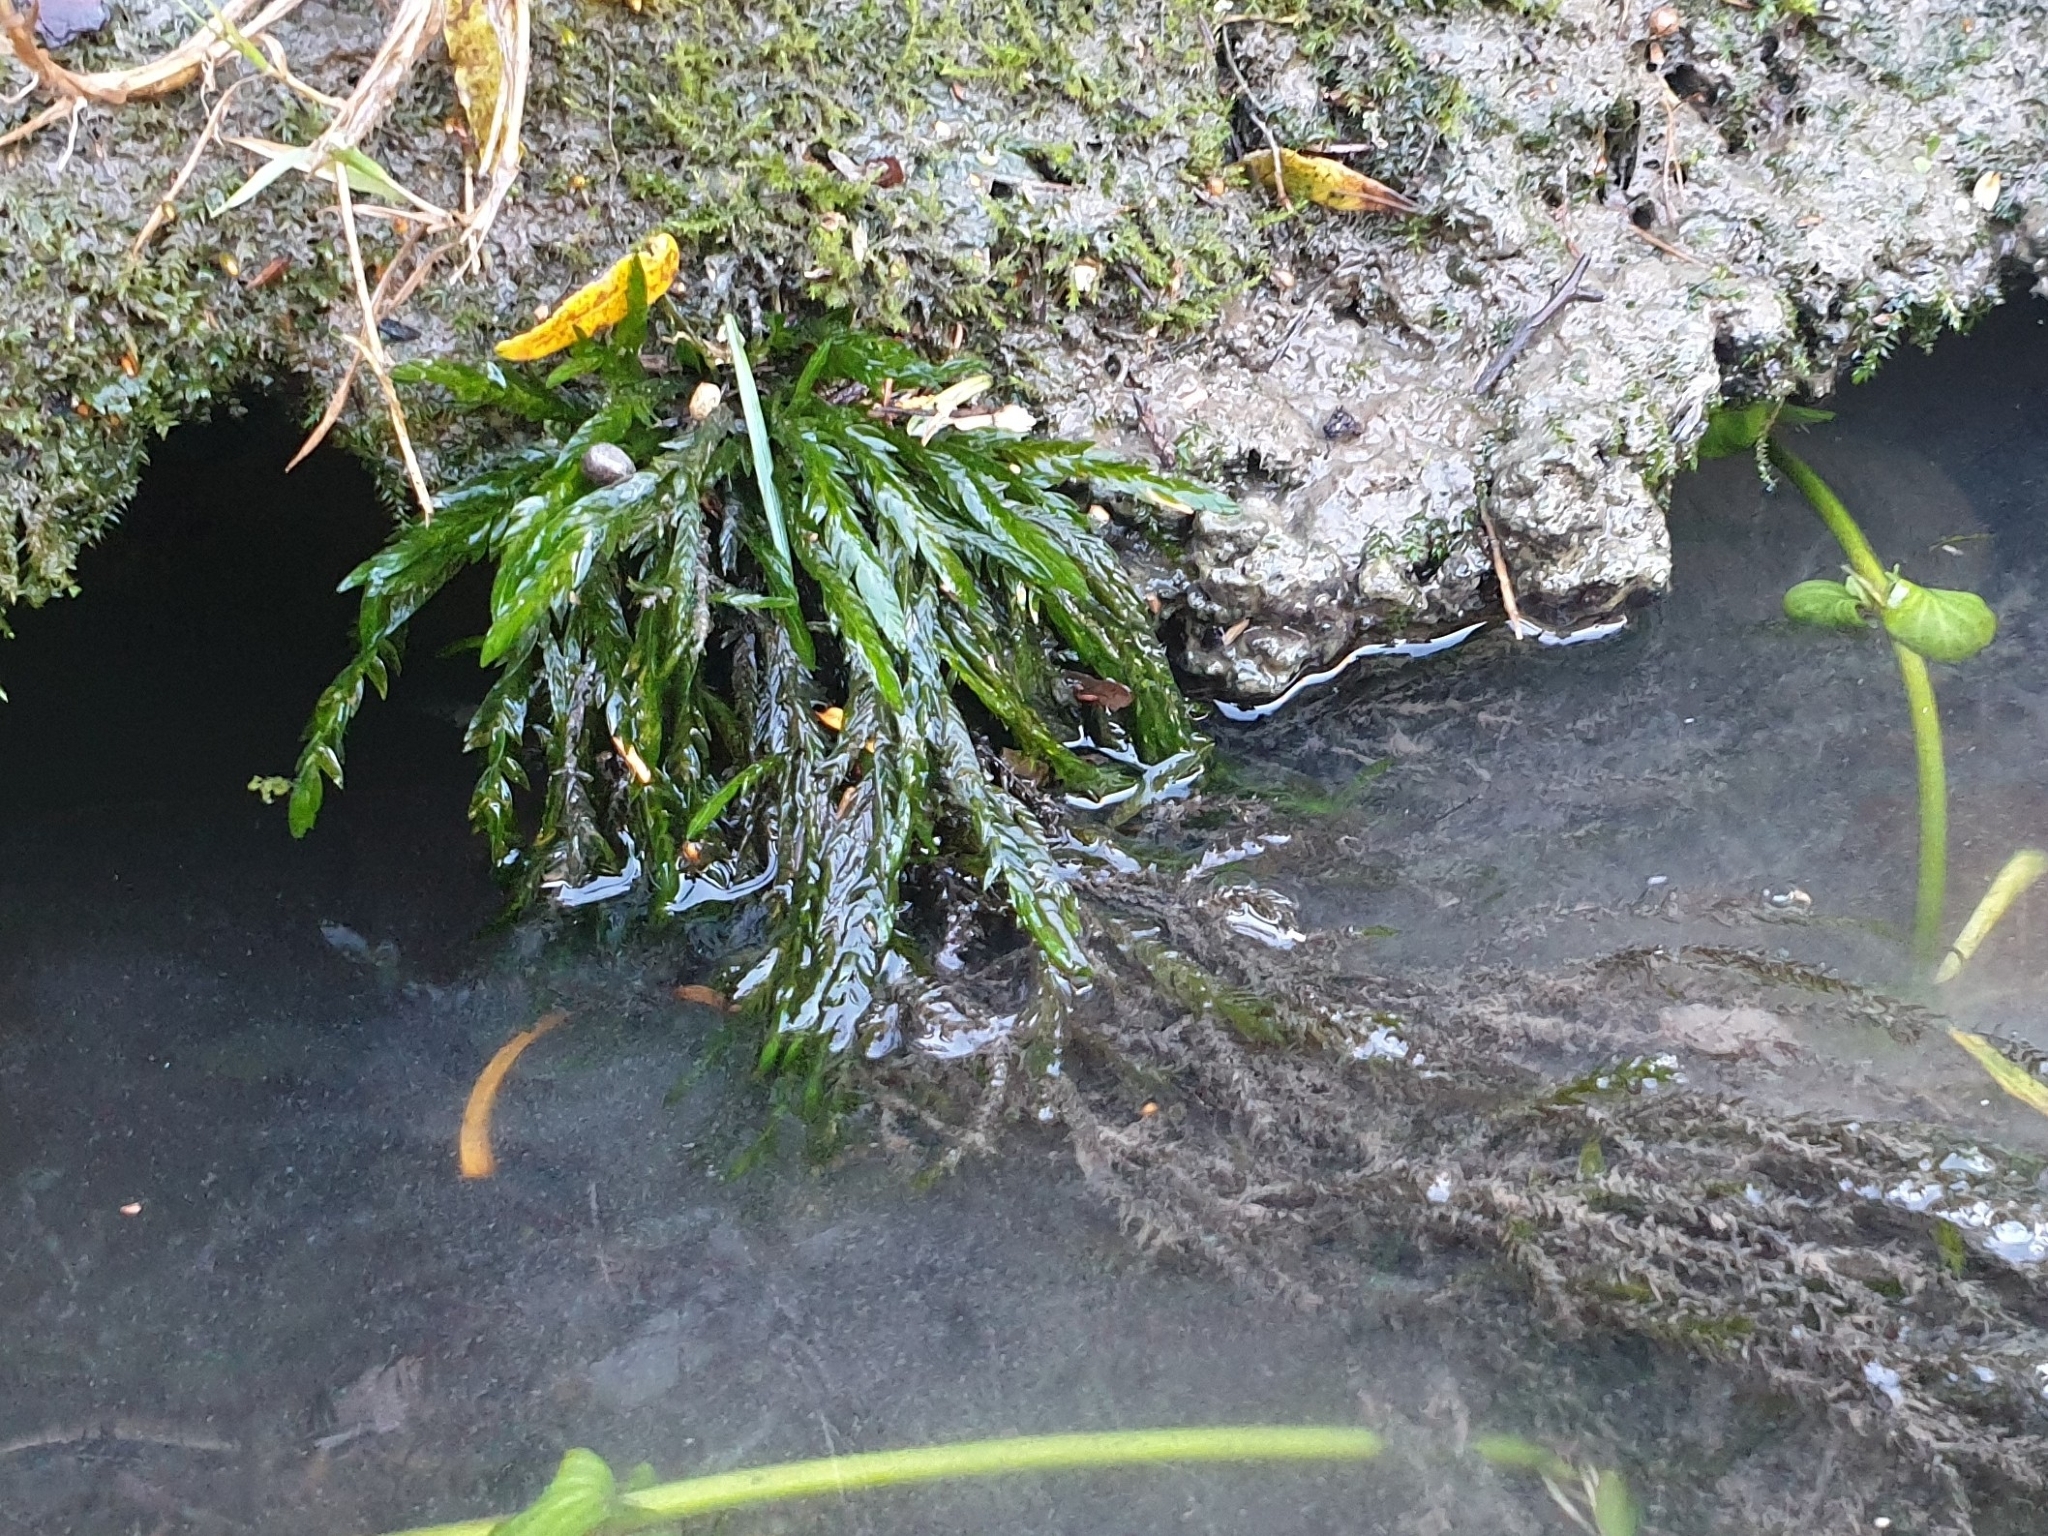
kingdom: Plantae
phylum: Bryophyta
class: Bryopsida
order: Hypnales
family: Fontinalaceae
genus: Fontinalis
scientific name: Fontinalis antipyretica
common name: Greater water-moss
